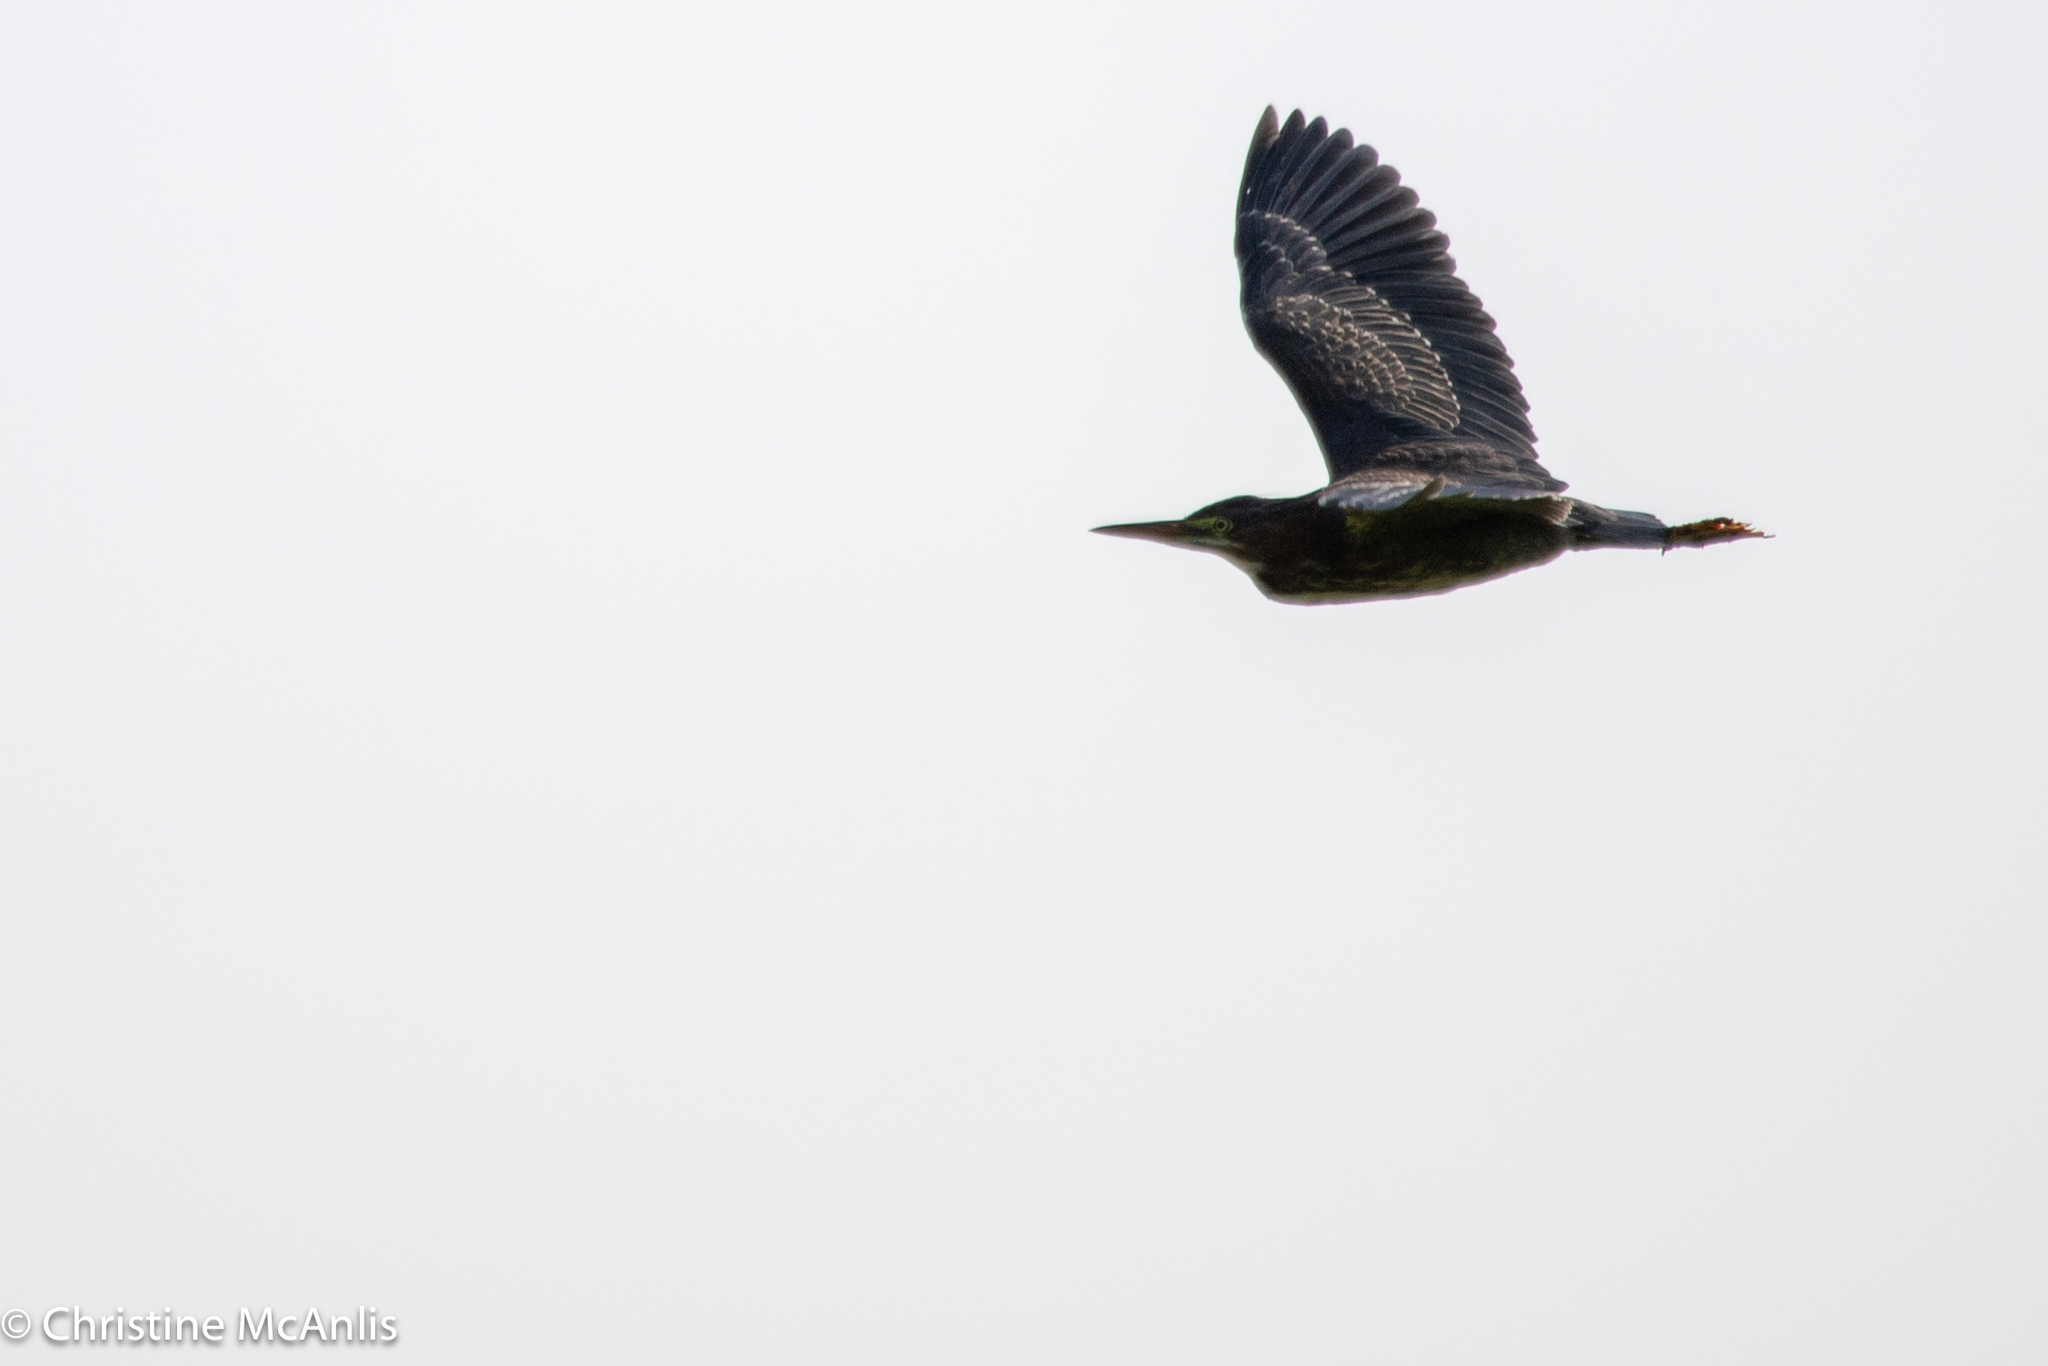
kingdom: Animalia
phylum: Chordata
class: Aves
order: Pelecaniformes
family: Ardeidae
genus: Butorides
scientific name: Butorides virescens
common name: Green heron
